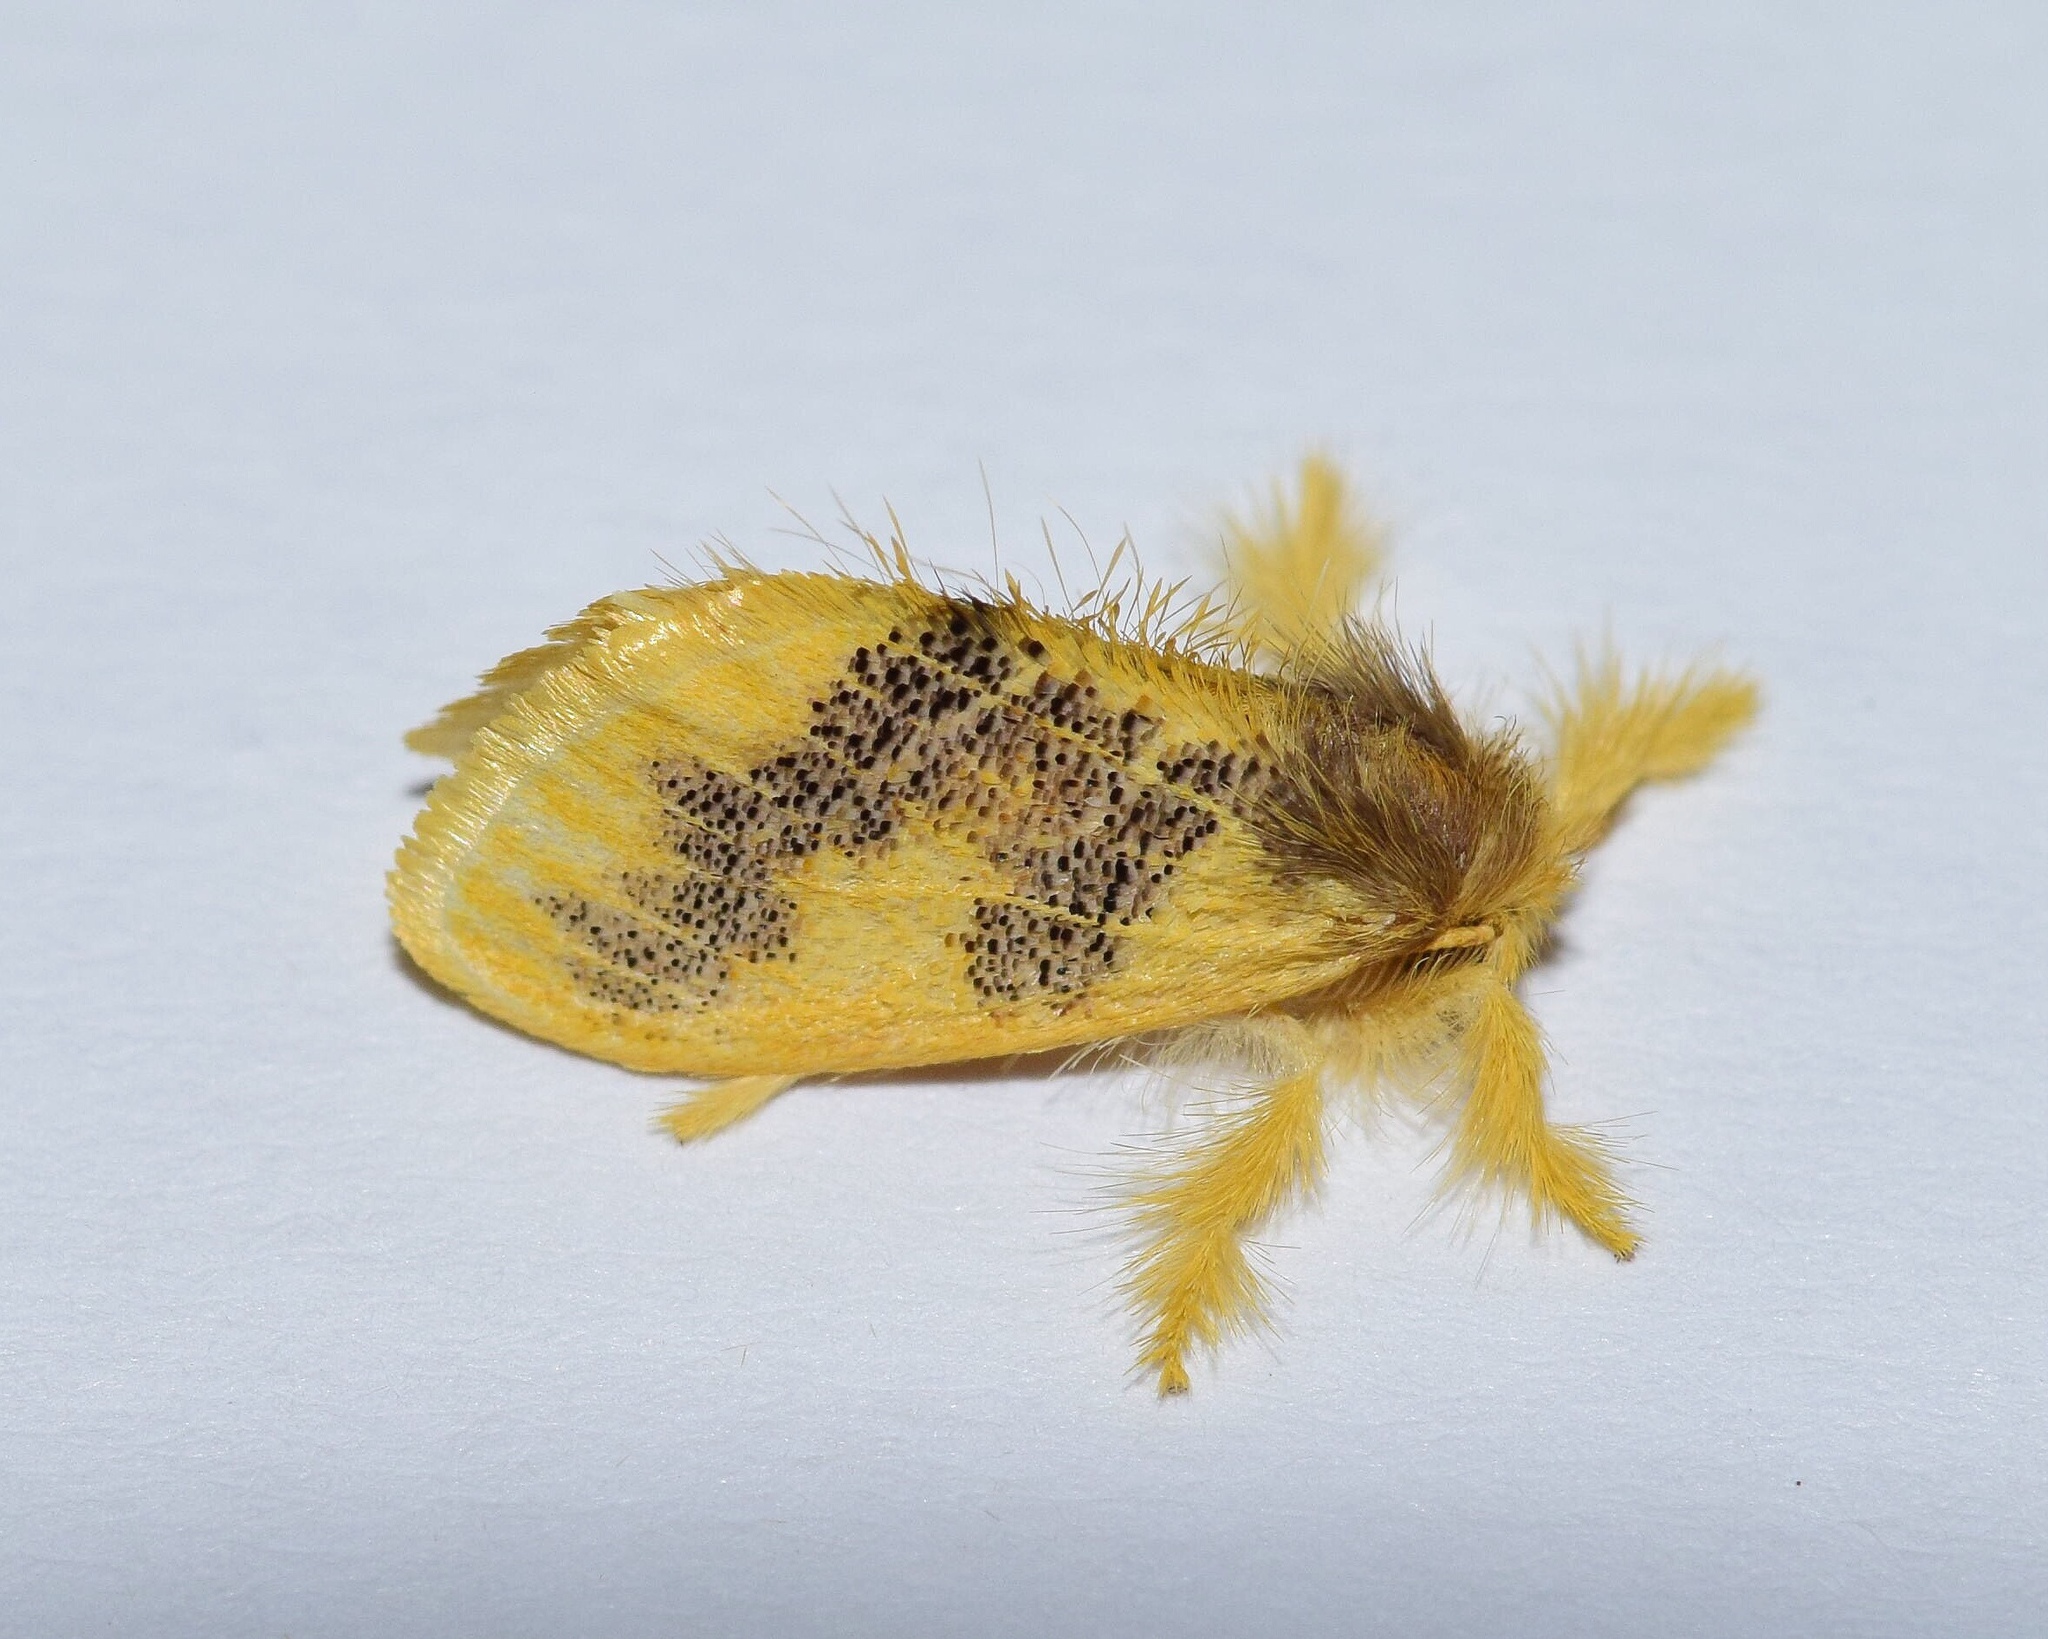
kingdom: Animalia
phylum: Arthropoda
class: Insecta
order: Lepidoptera
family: Erebidae
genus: Euproctis
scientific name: Euproctis aethiopica
